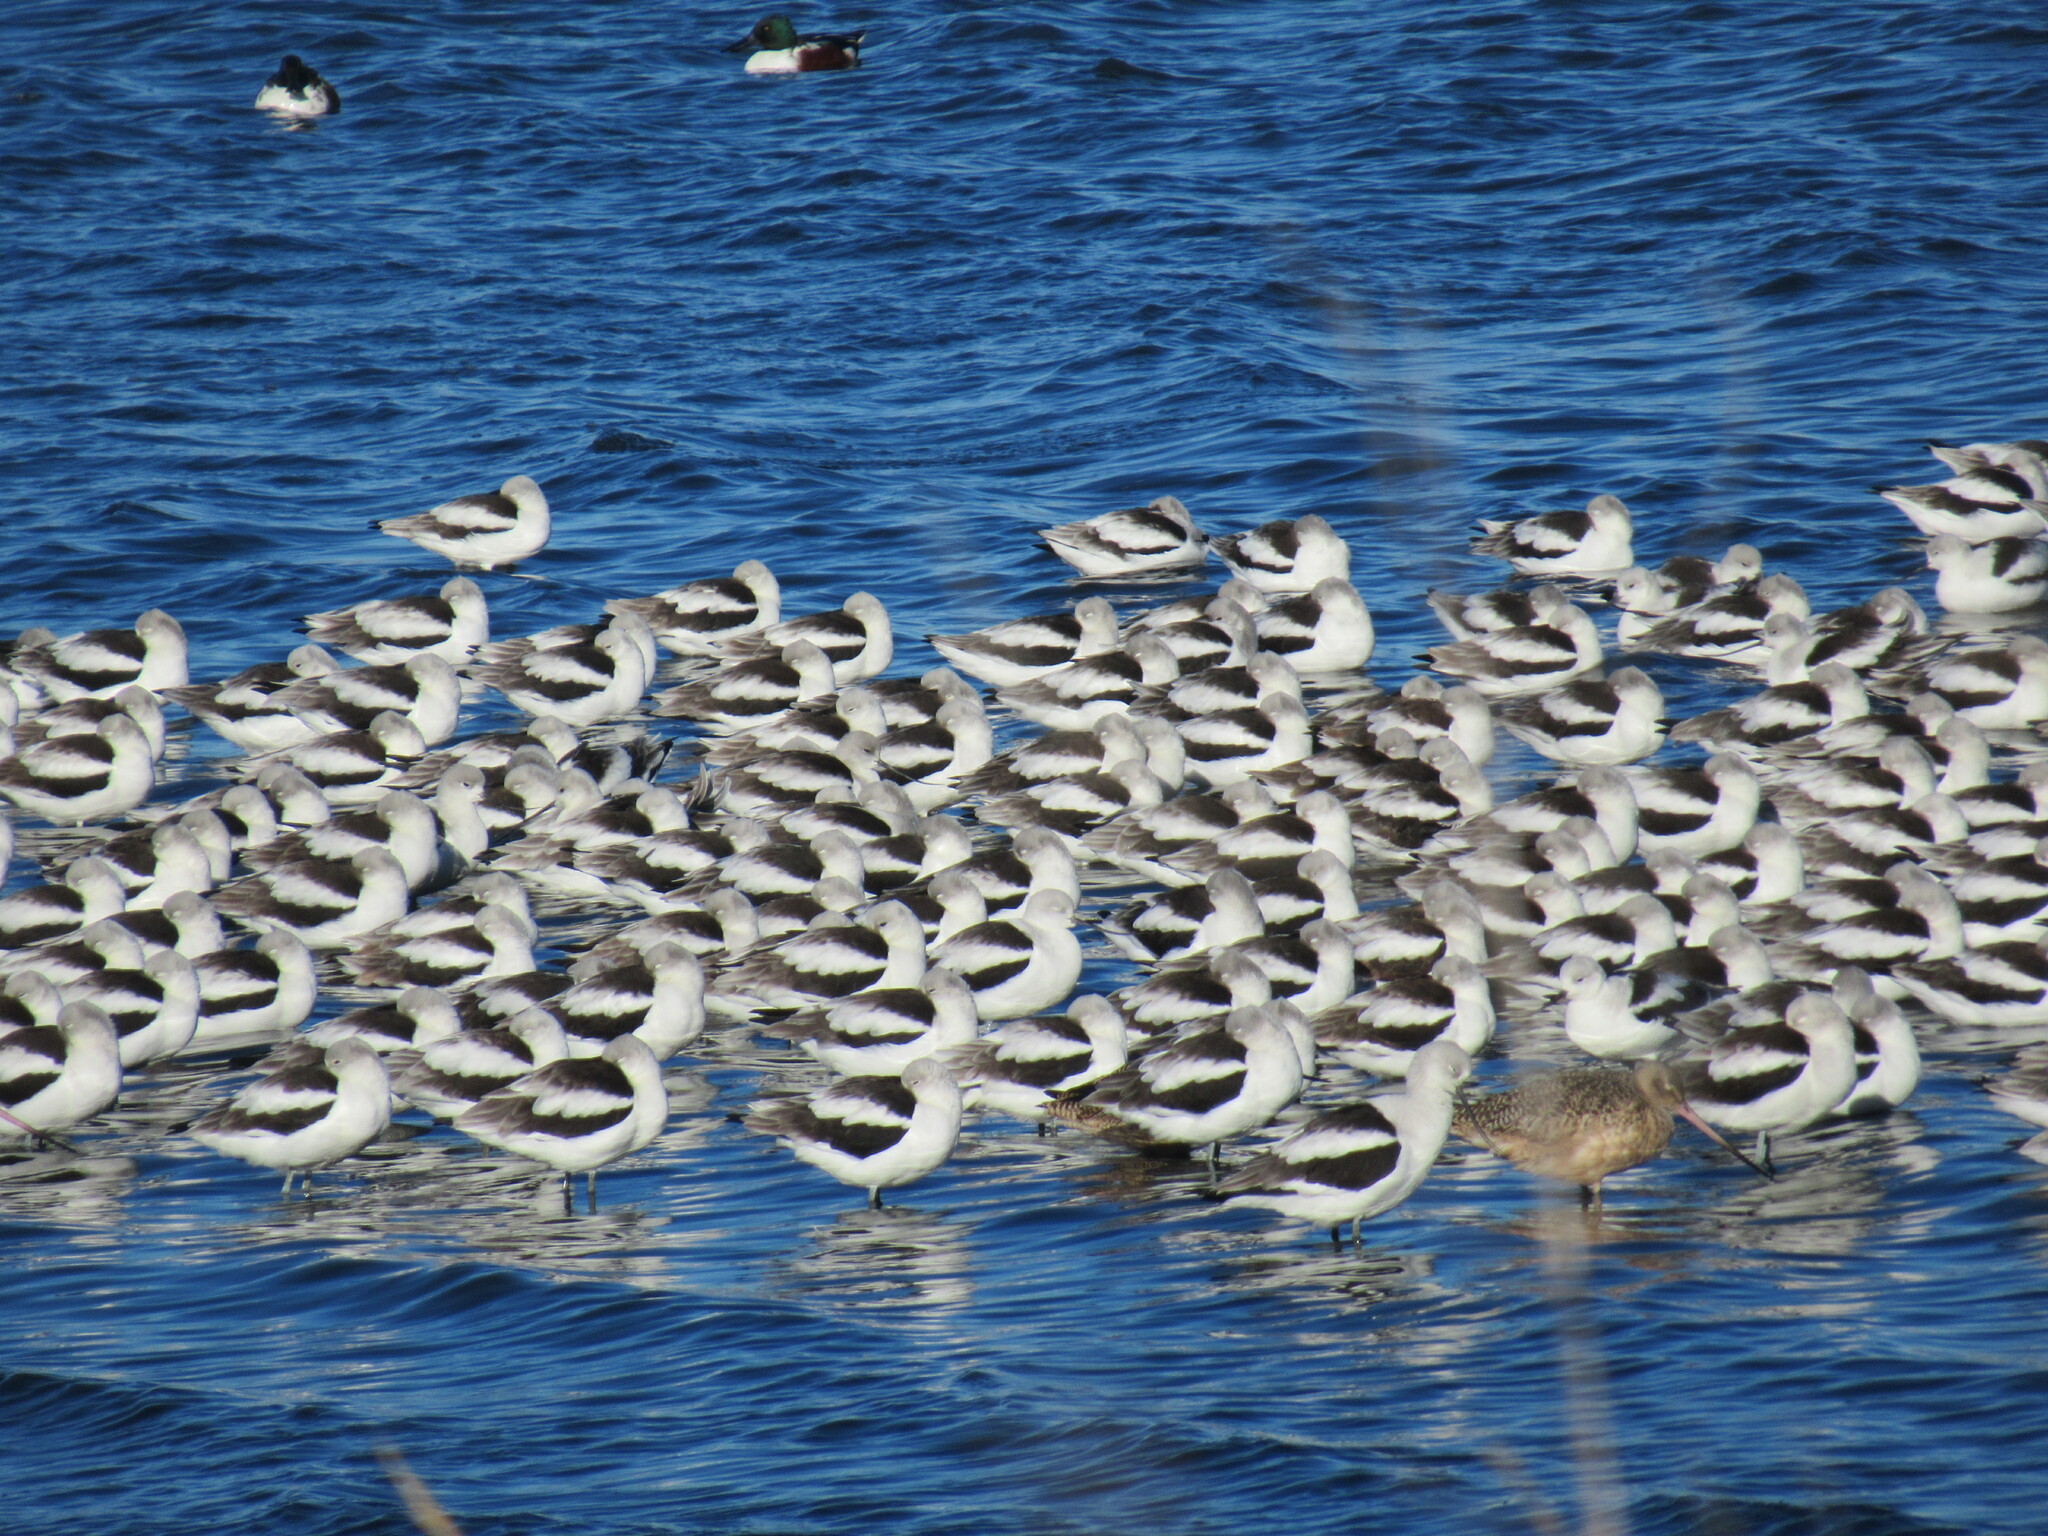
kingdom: Animalia
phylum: Chordata
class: Aves
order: Charadriiformes
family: Recurvirostridae
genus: Recurvirostra
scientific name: Recurvirostra americana
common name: American avocet
